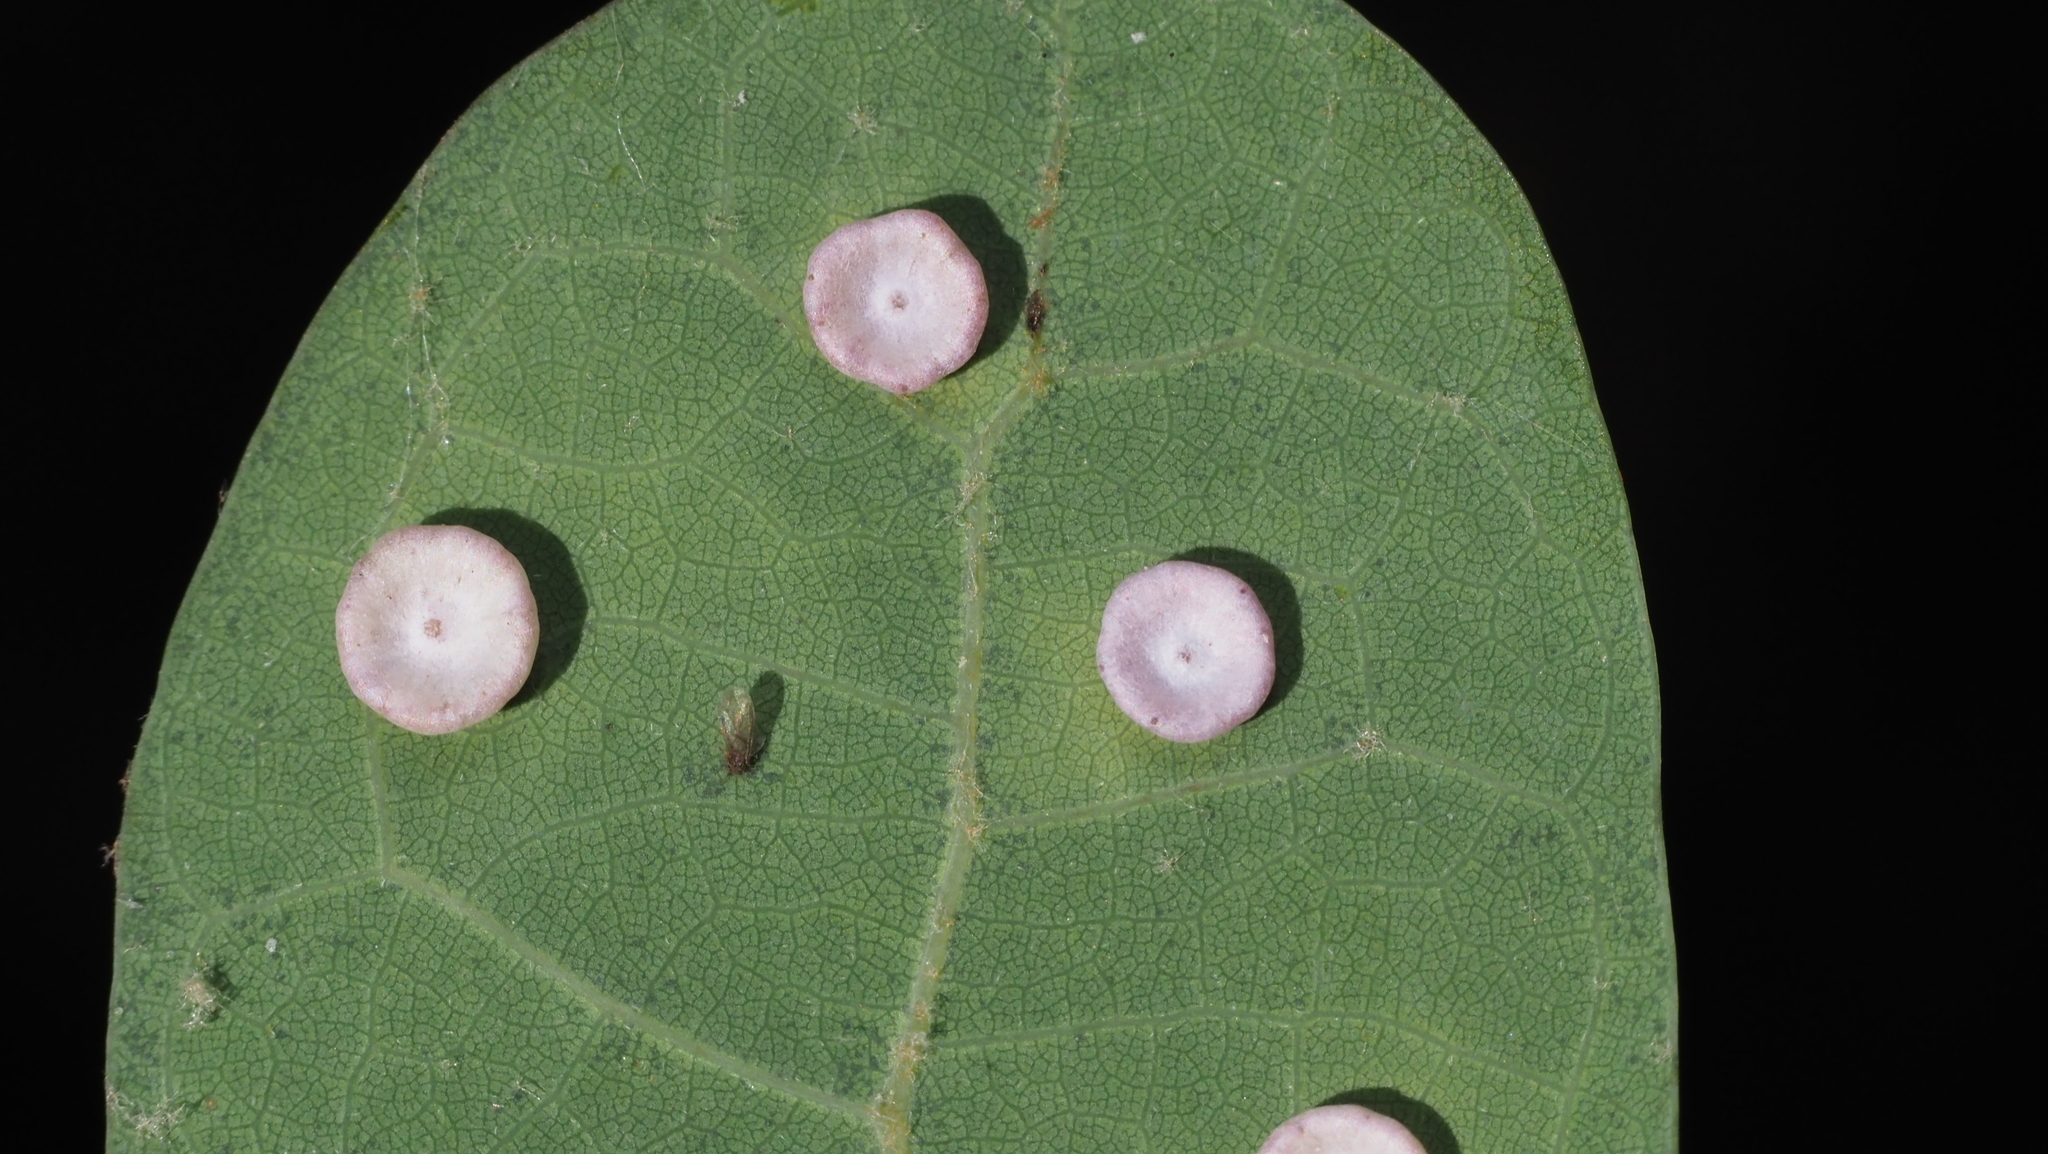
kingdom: Animalia
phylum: Arthropoda
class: Insecta
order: Hymenoptera
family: Cynipidae
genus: Phylloteras
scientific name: Phylloteras poculum
